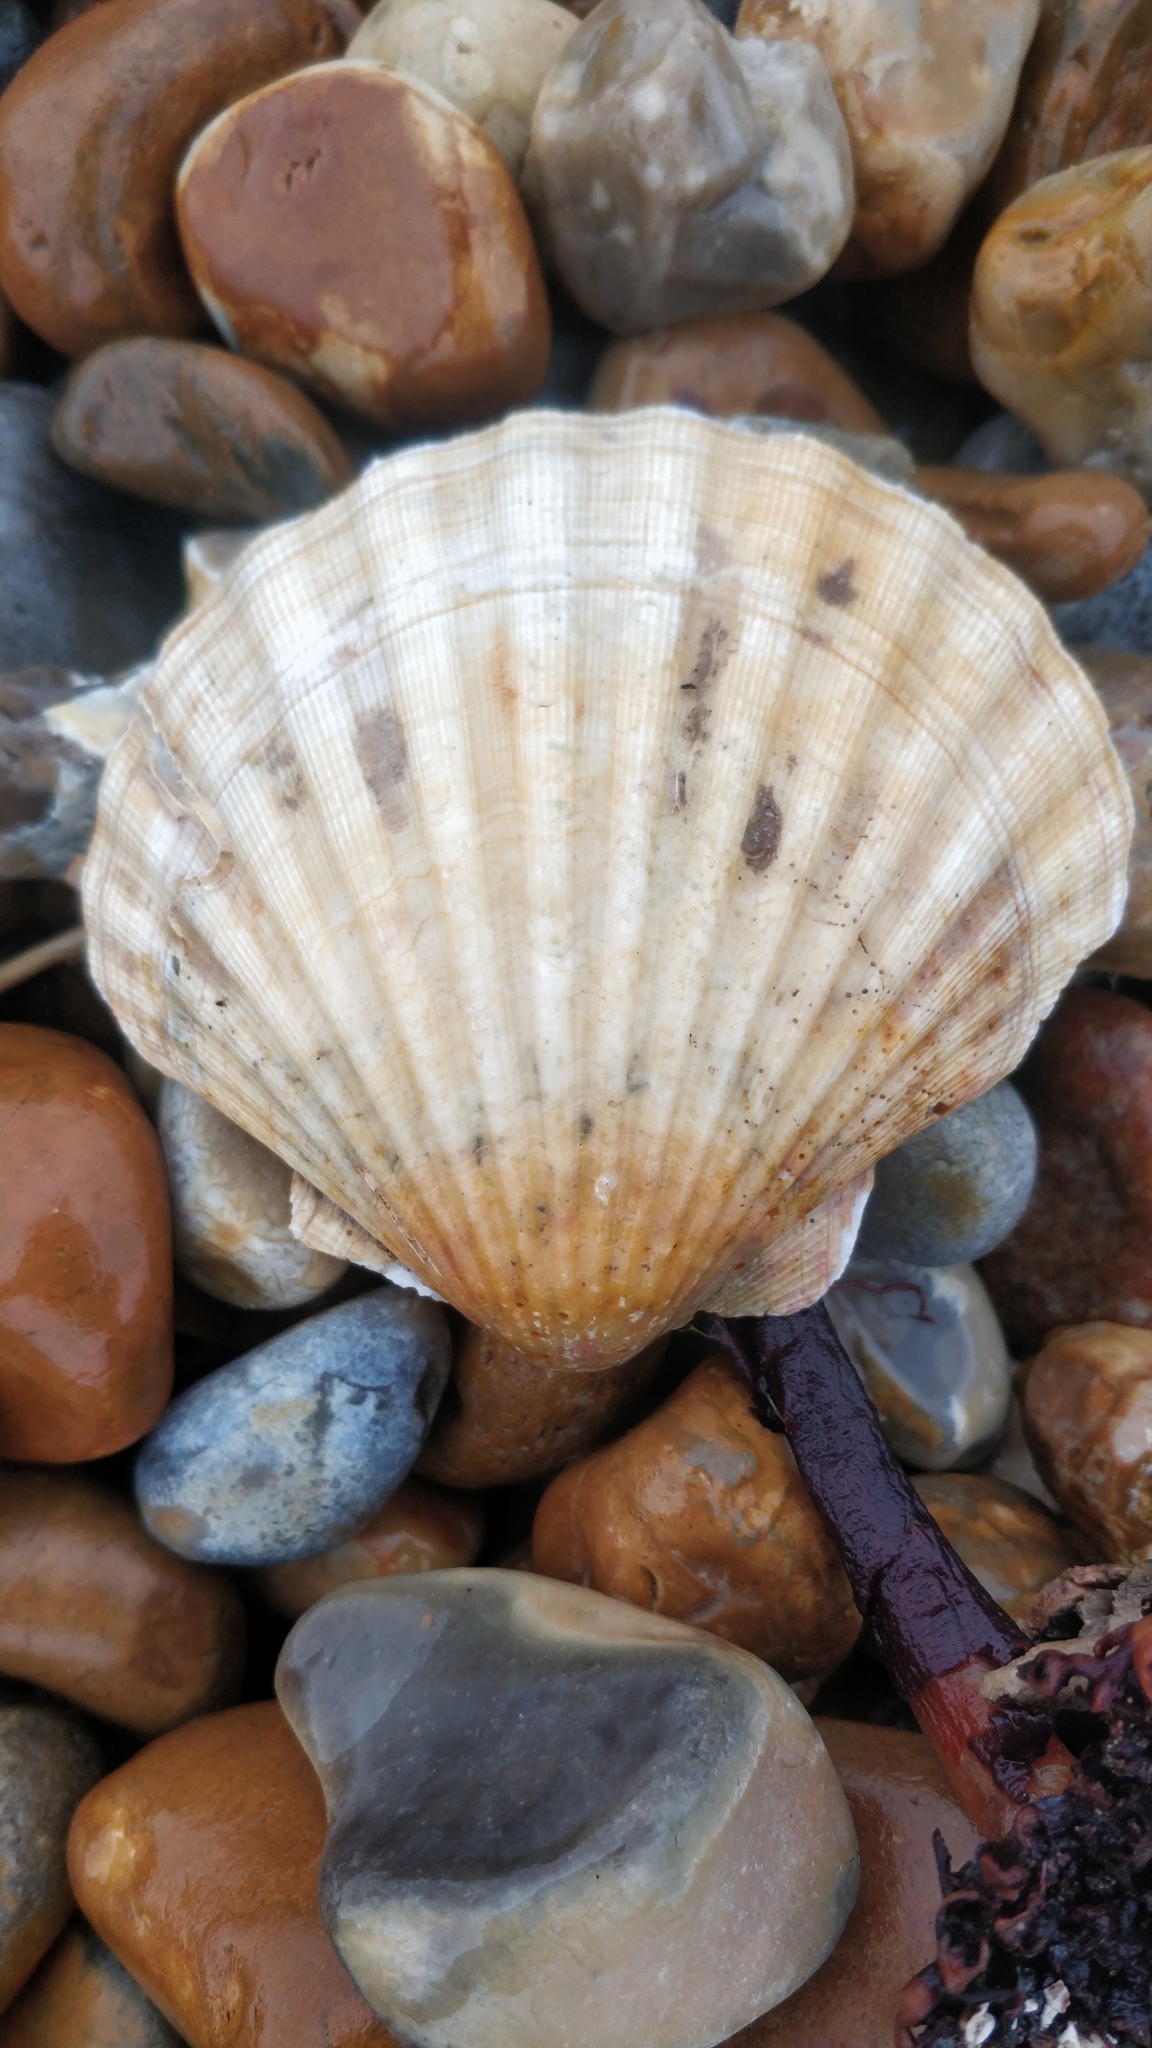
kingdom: Animalia
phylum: Mollusca
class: Bivalvia
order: Pectinida
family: Pectinidae
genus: Pecten
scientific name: Pecten maximus
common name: Great scallop
